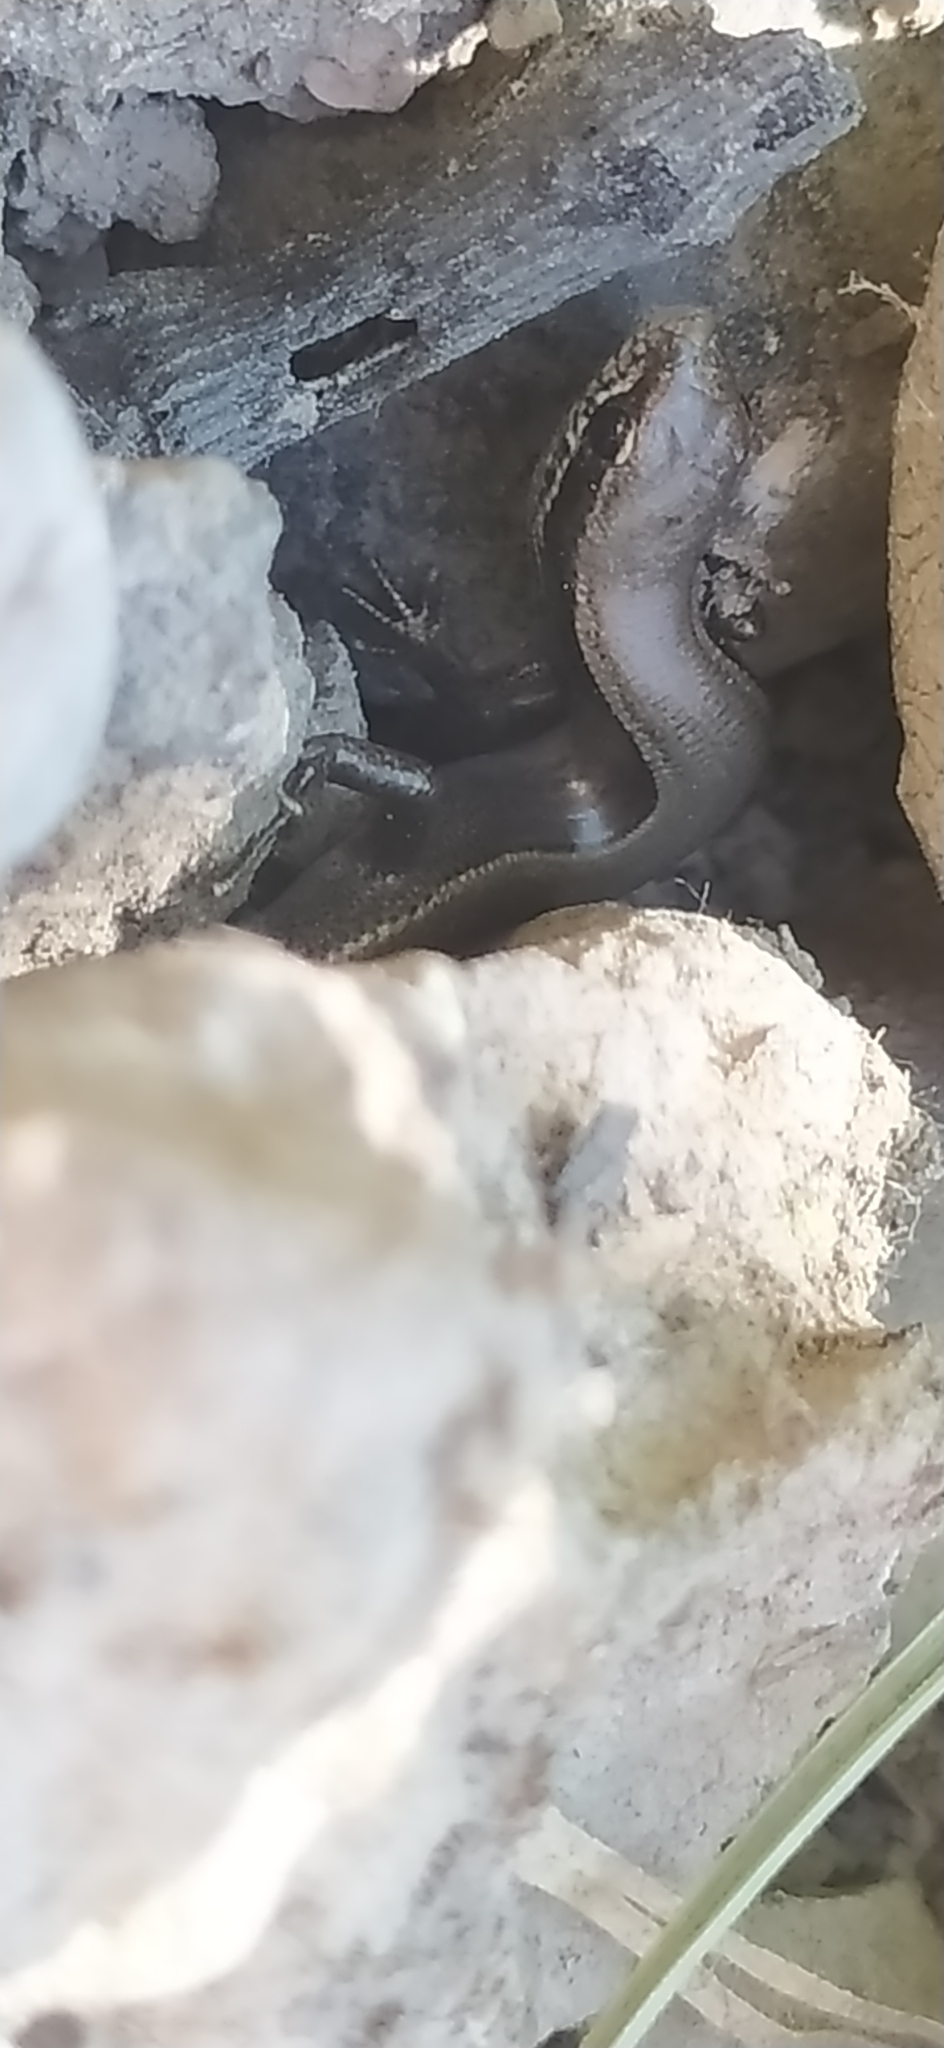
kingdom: Animalia
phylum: Chordata
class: Squamata
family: Scincidae
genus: Ablepharus
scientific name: Ablepharus deserti
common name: Desert lidless skink
